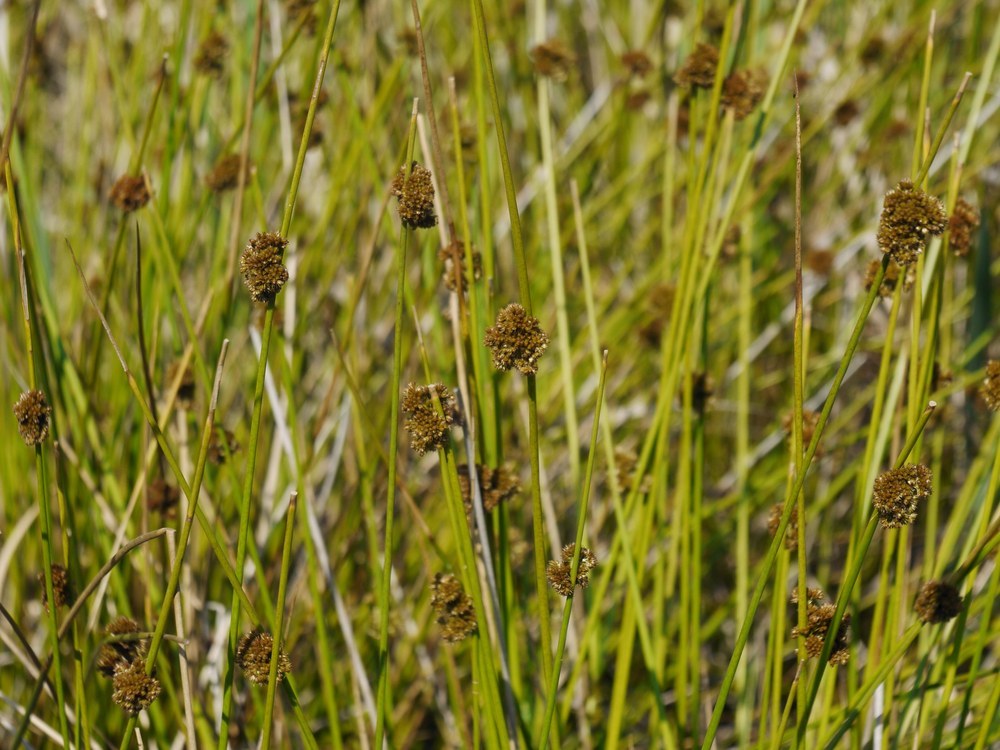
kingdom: Plantae
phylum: Tracheophyta
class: Liliopsida
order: Poales
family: Juncaceae
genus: Juncus
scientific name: Juncus conglomeratus
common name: Compact rush
